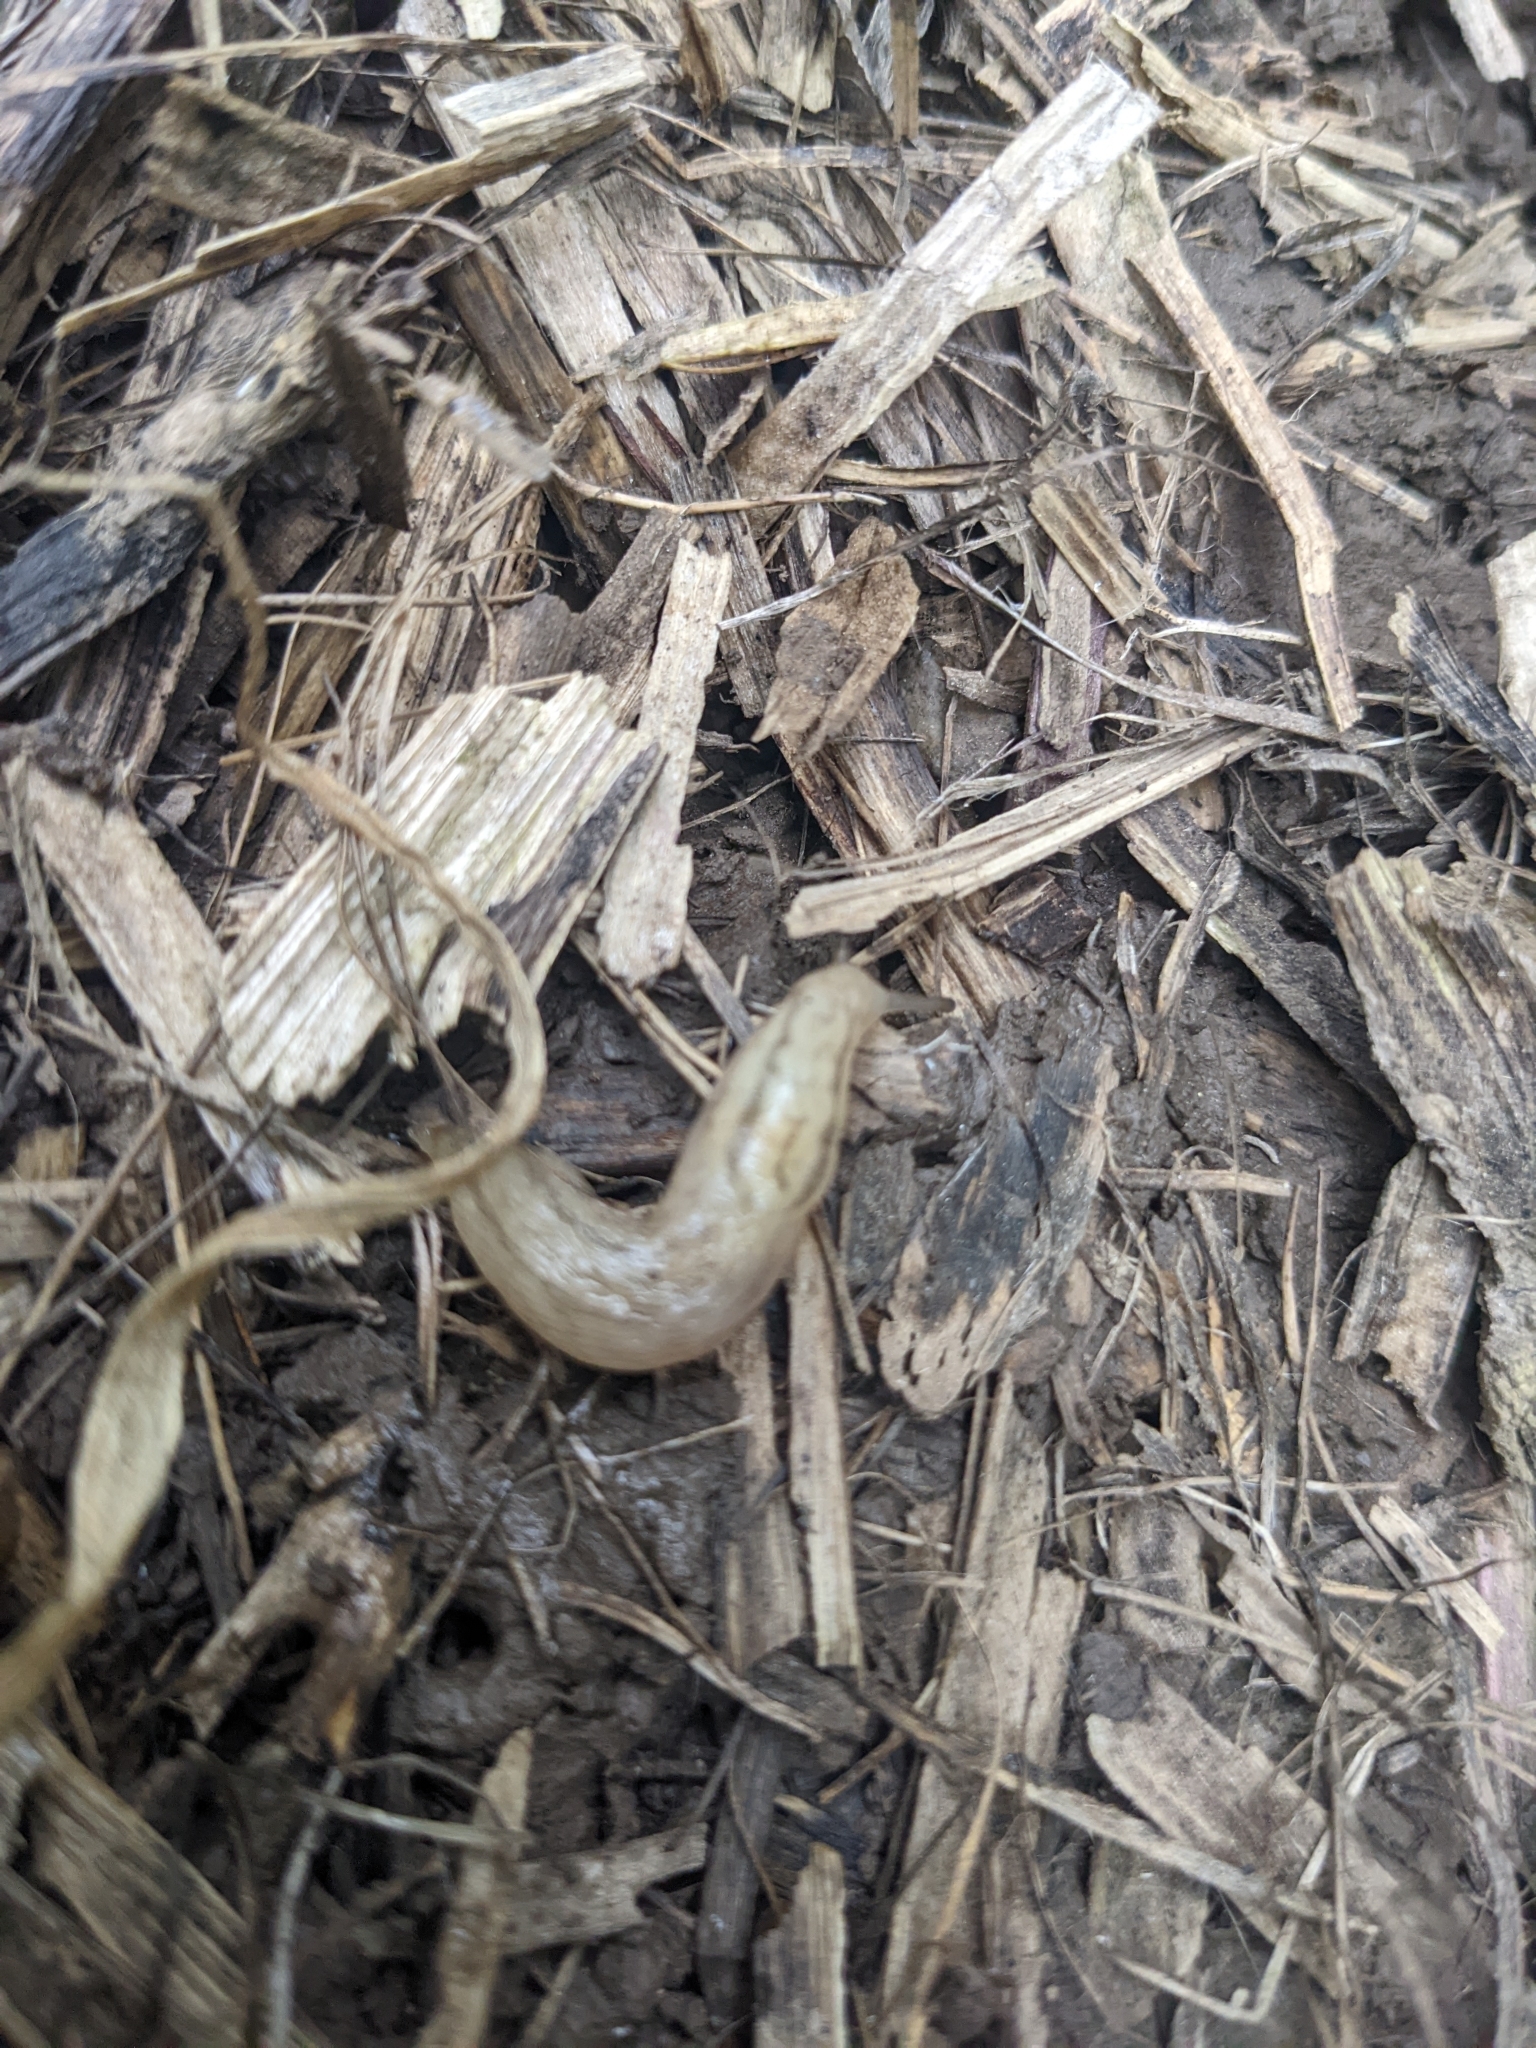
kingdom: Animalia
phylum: Mollusca
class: Gastropoda
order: Stylommatophora
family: Limacidae
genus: Ambigolimax
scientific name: Ambigolimax
